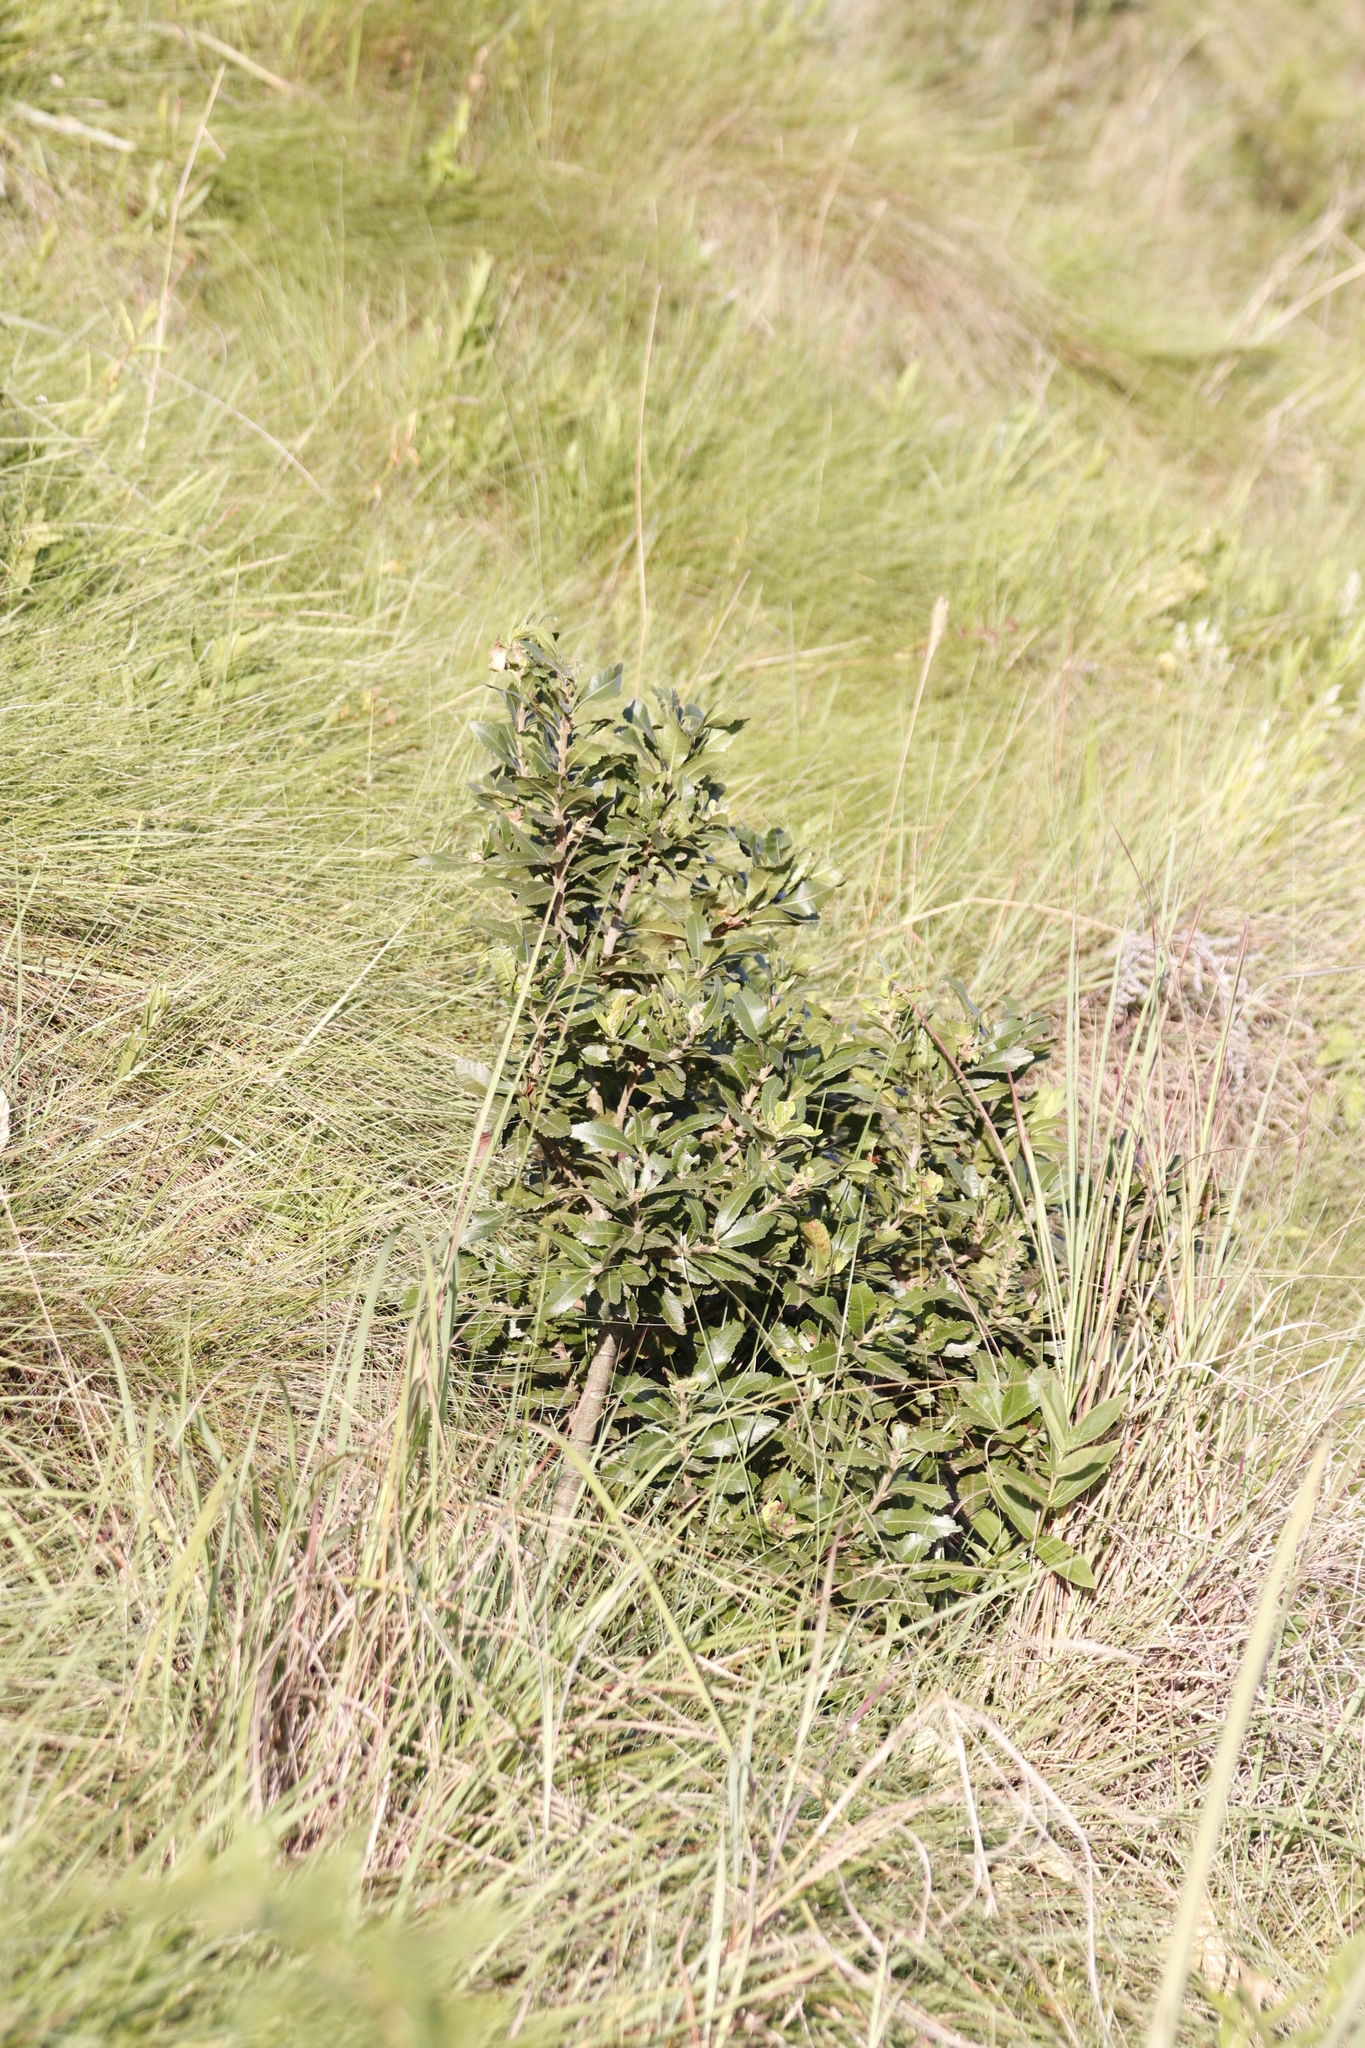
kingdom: Plantae
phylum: Tracheophyta
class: Magnoliopsida
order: Fagales
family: Myricaceae
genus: Morella
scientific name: Morella pilulifera
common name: Broad-leaved waxberry
